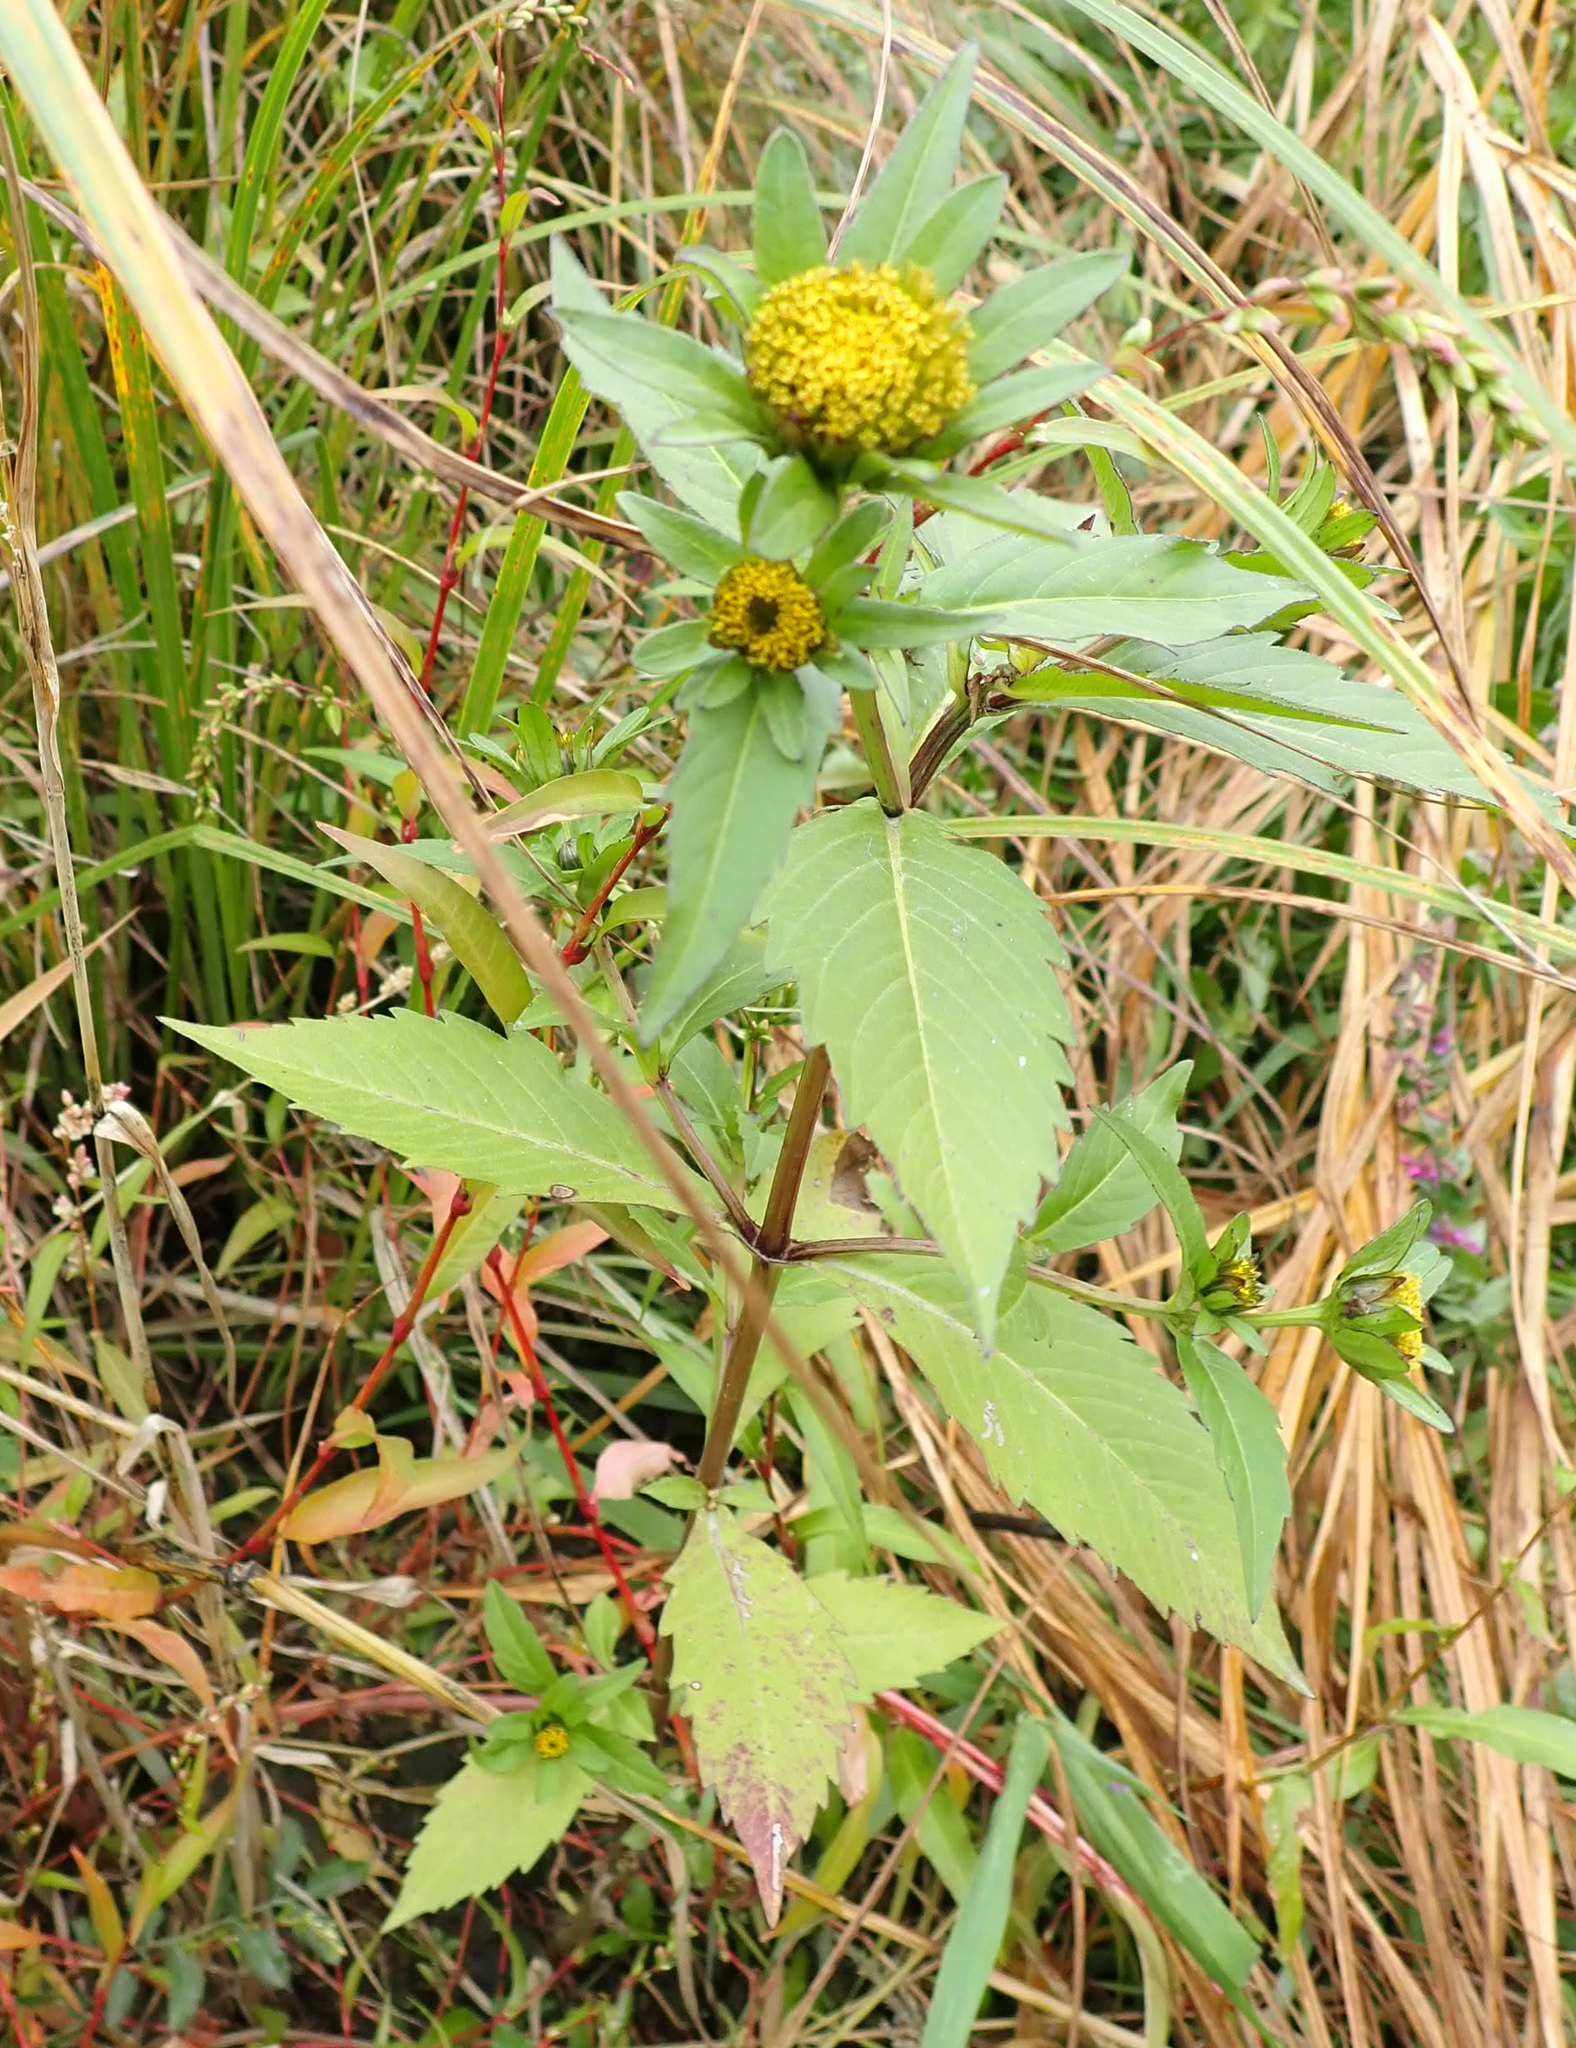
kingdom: Plantae
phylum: Tracheophyta
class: Magnoliopsida
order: Asterales
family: Asteraceae
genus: Bidens
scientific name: Bidens tripartita
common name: Trifid bur-marigold
